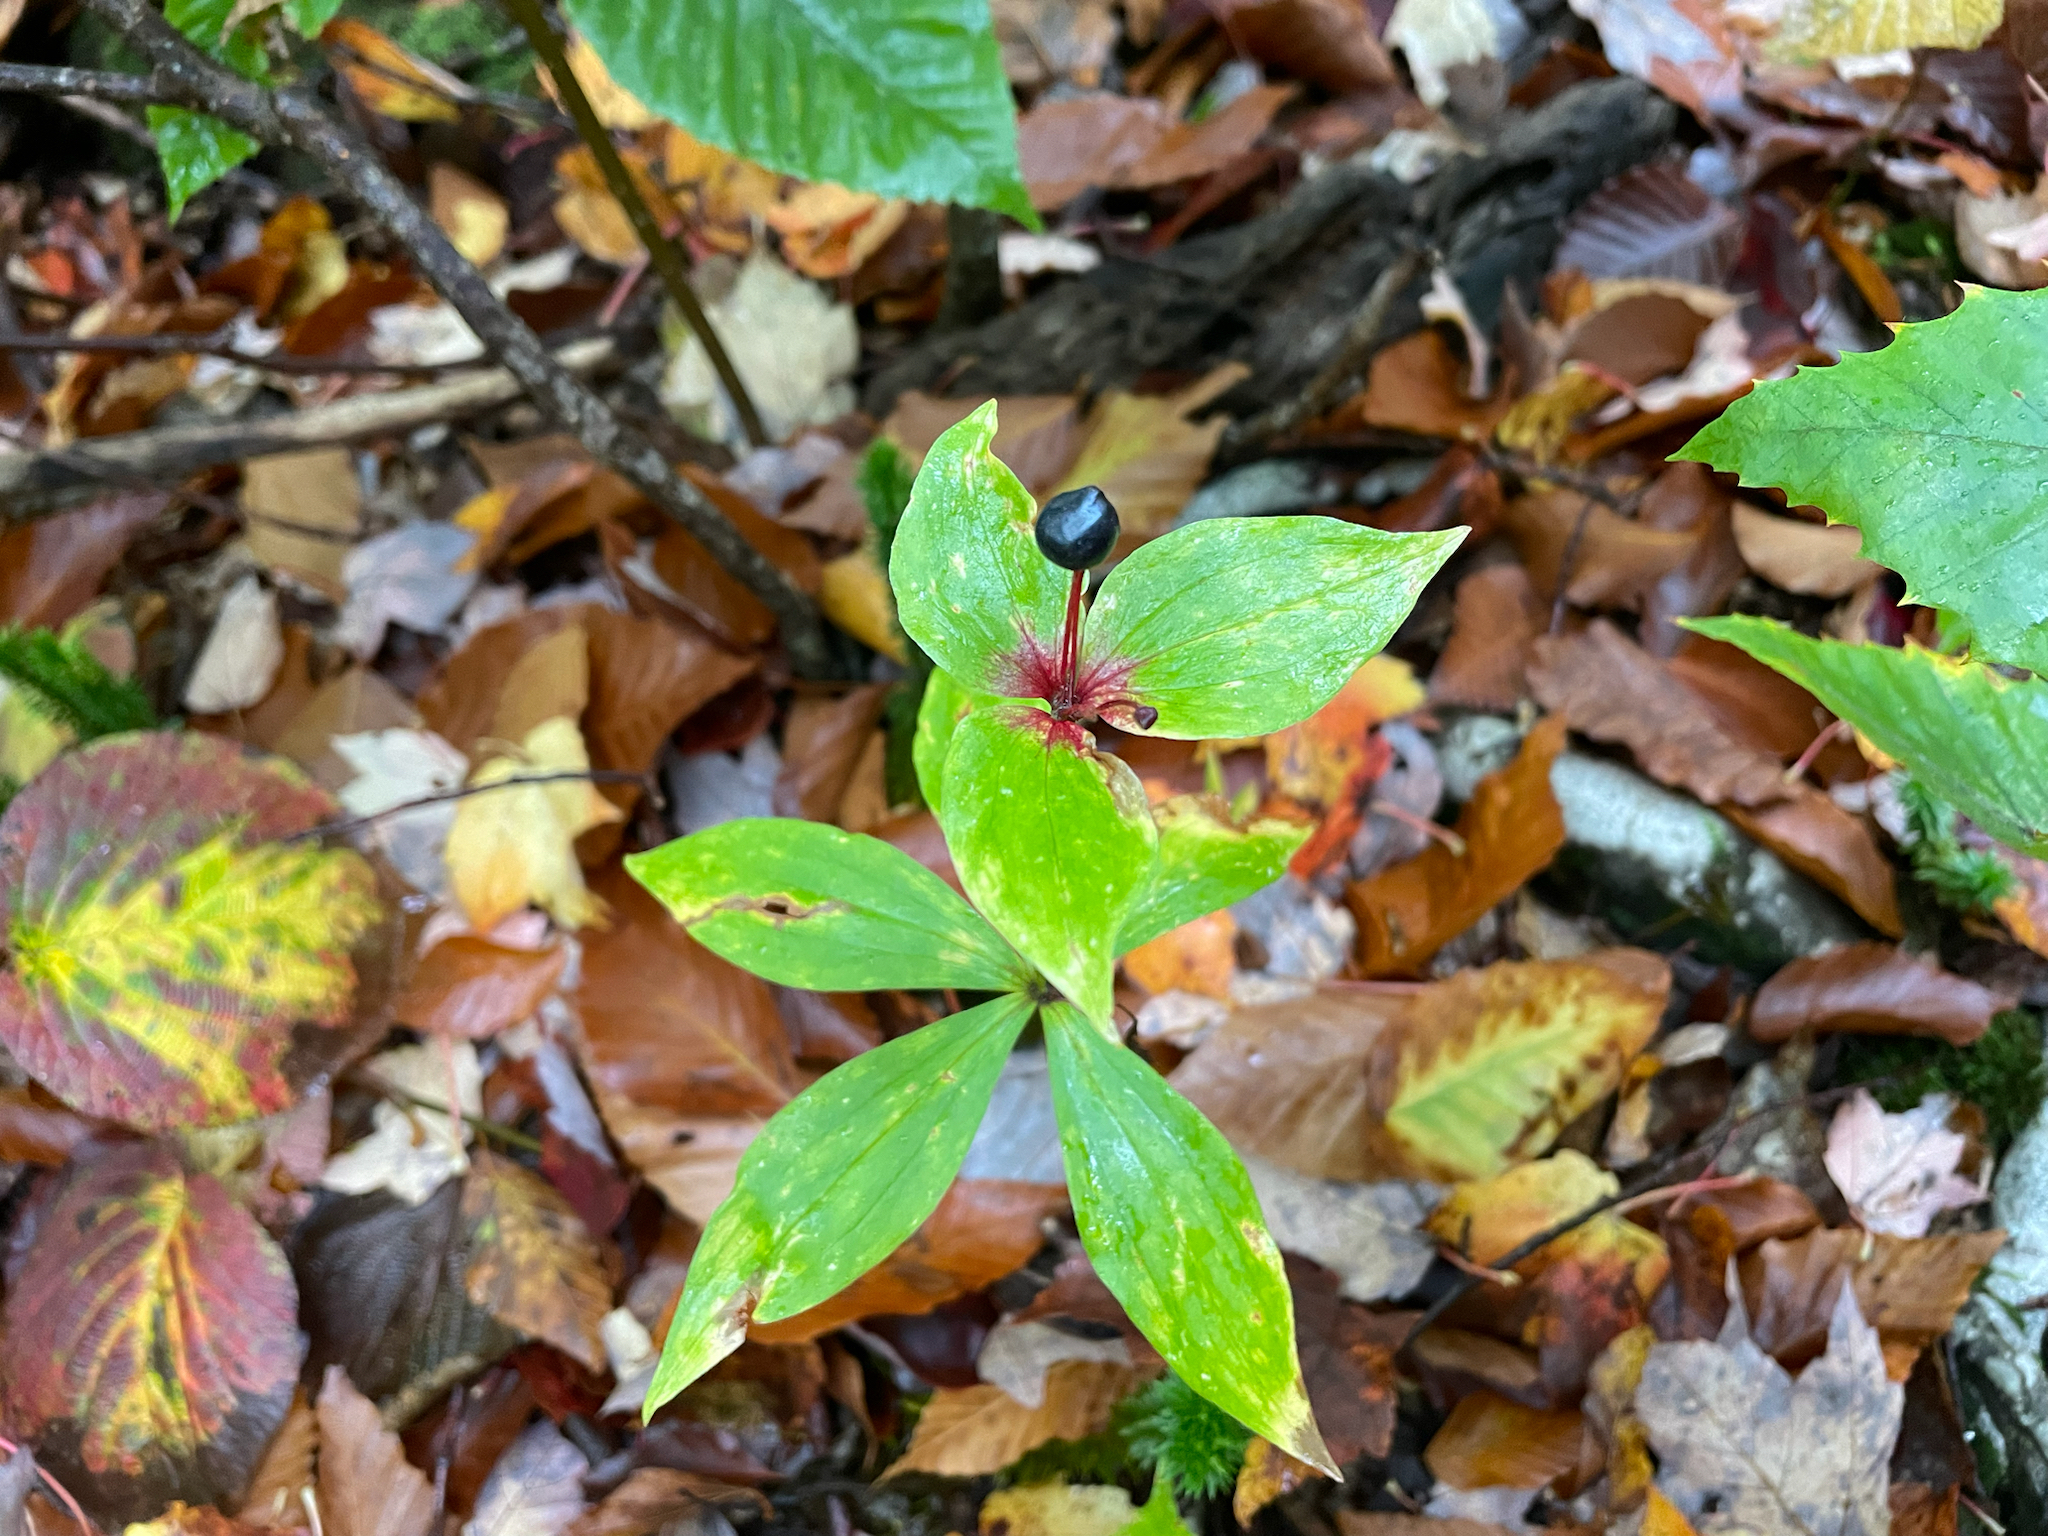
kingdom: Plantae
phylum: Tracheophyta
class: Liliopsida
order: Liliales
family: Liliaceae
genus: Medeola
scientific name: Medeola virginiana
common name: Indian cucumber-root
